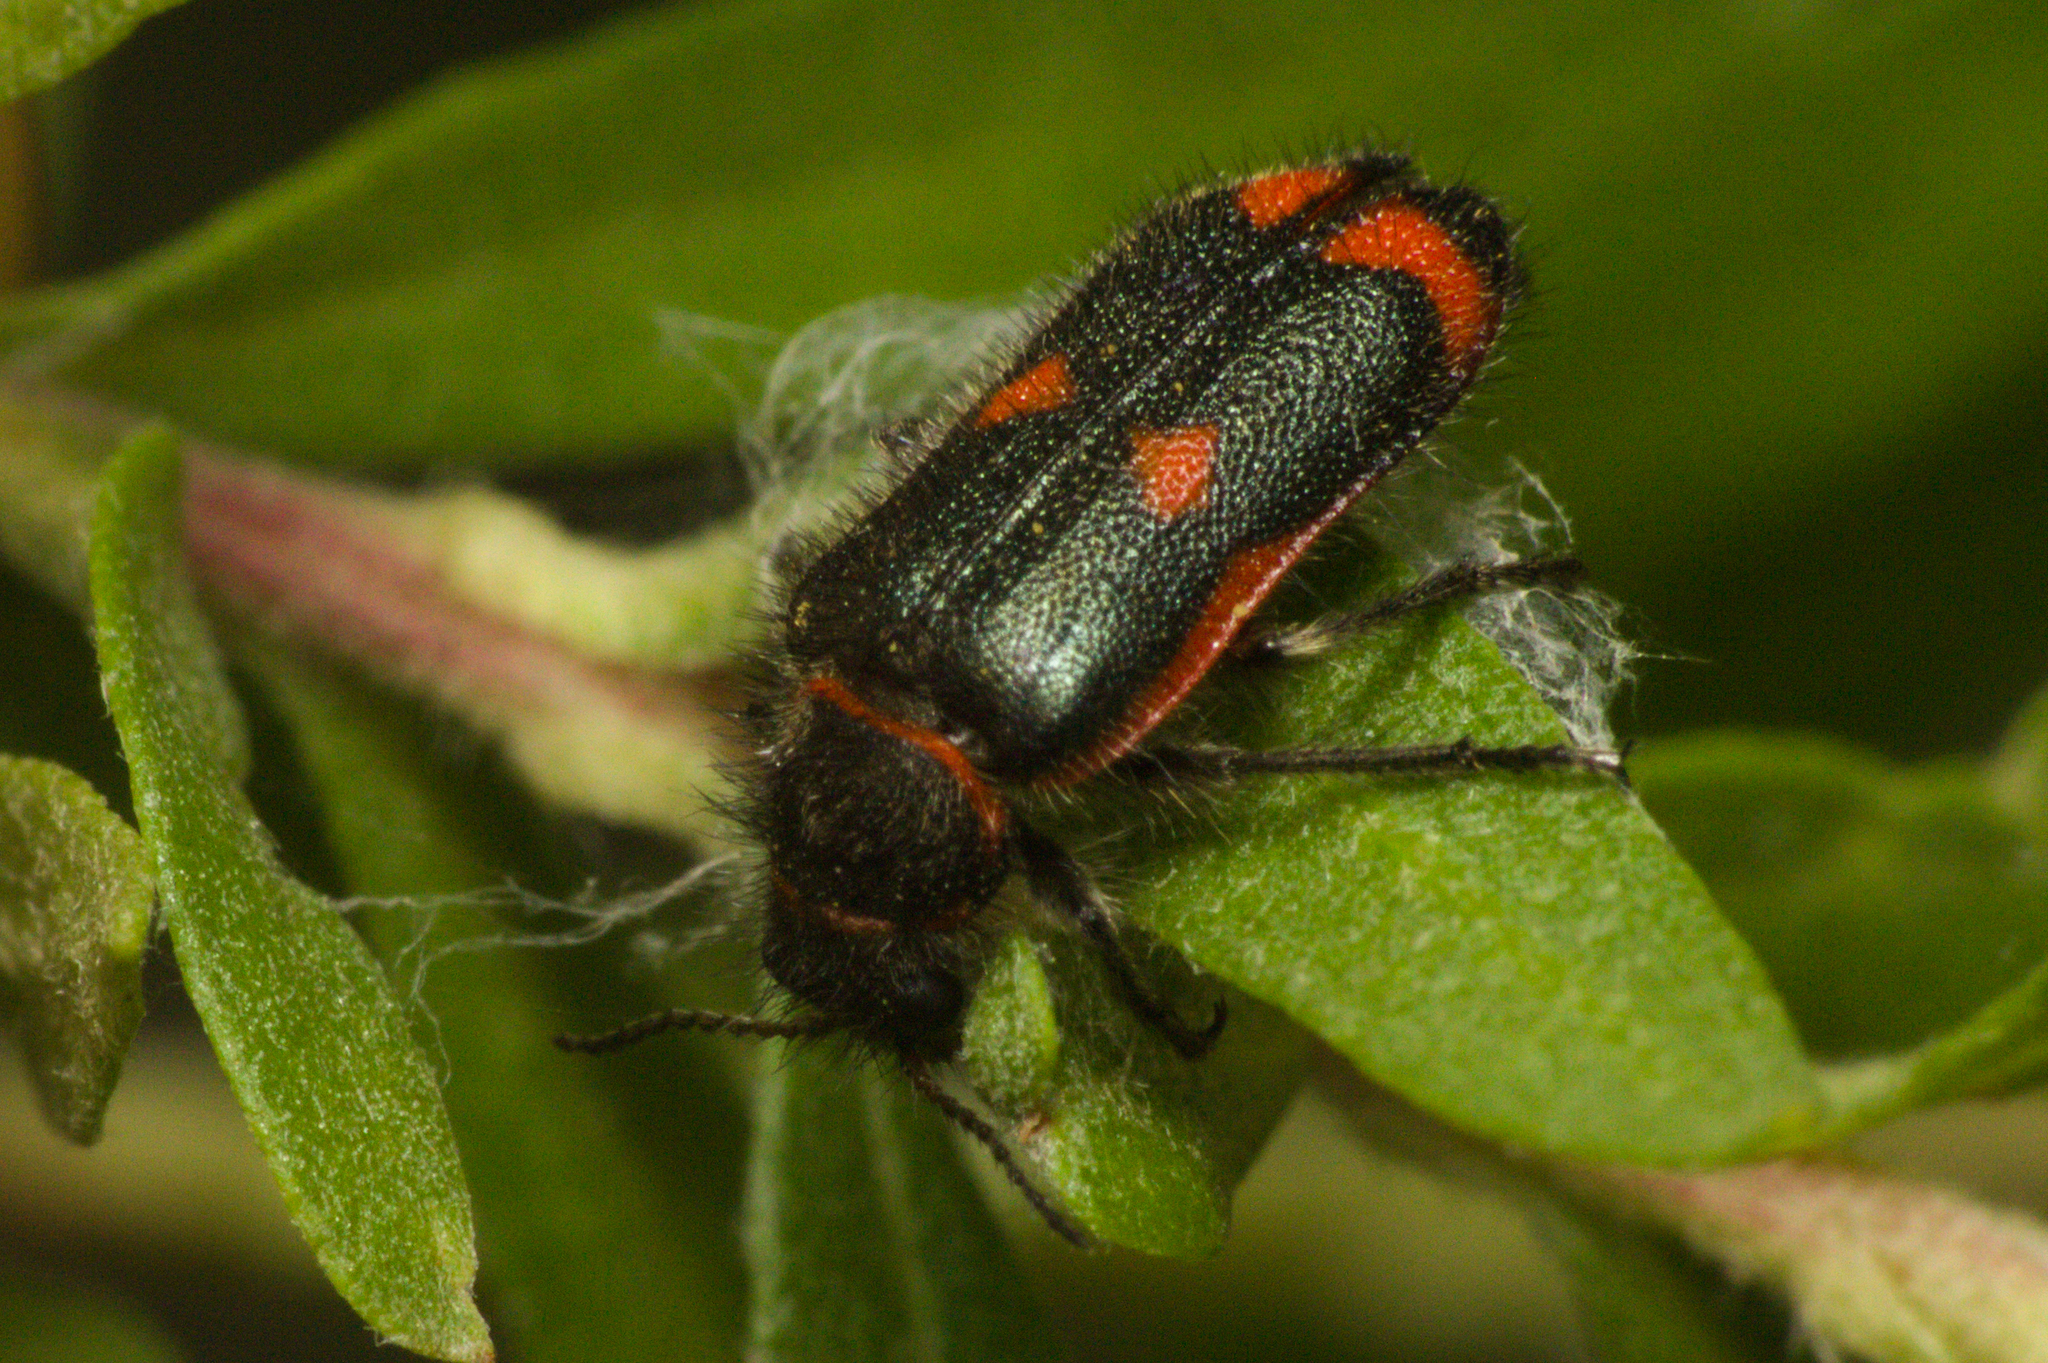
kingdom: Animalia
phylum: Arthropoda
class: Insecta
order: Coleoptera
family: Melyridae
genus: Astylus
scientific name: Astylus
